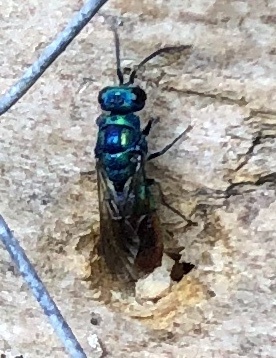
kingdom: Animalia
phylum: Arthropoda
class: Insecta
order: Hymenoptera
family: Chrysididae
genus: Chrysis
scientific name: Chrysis fulgida
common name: Shimmering ruby-tail
